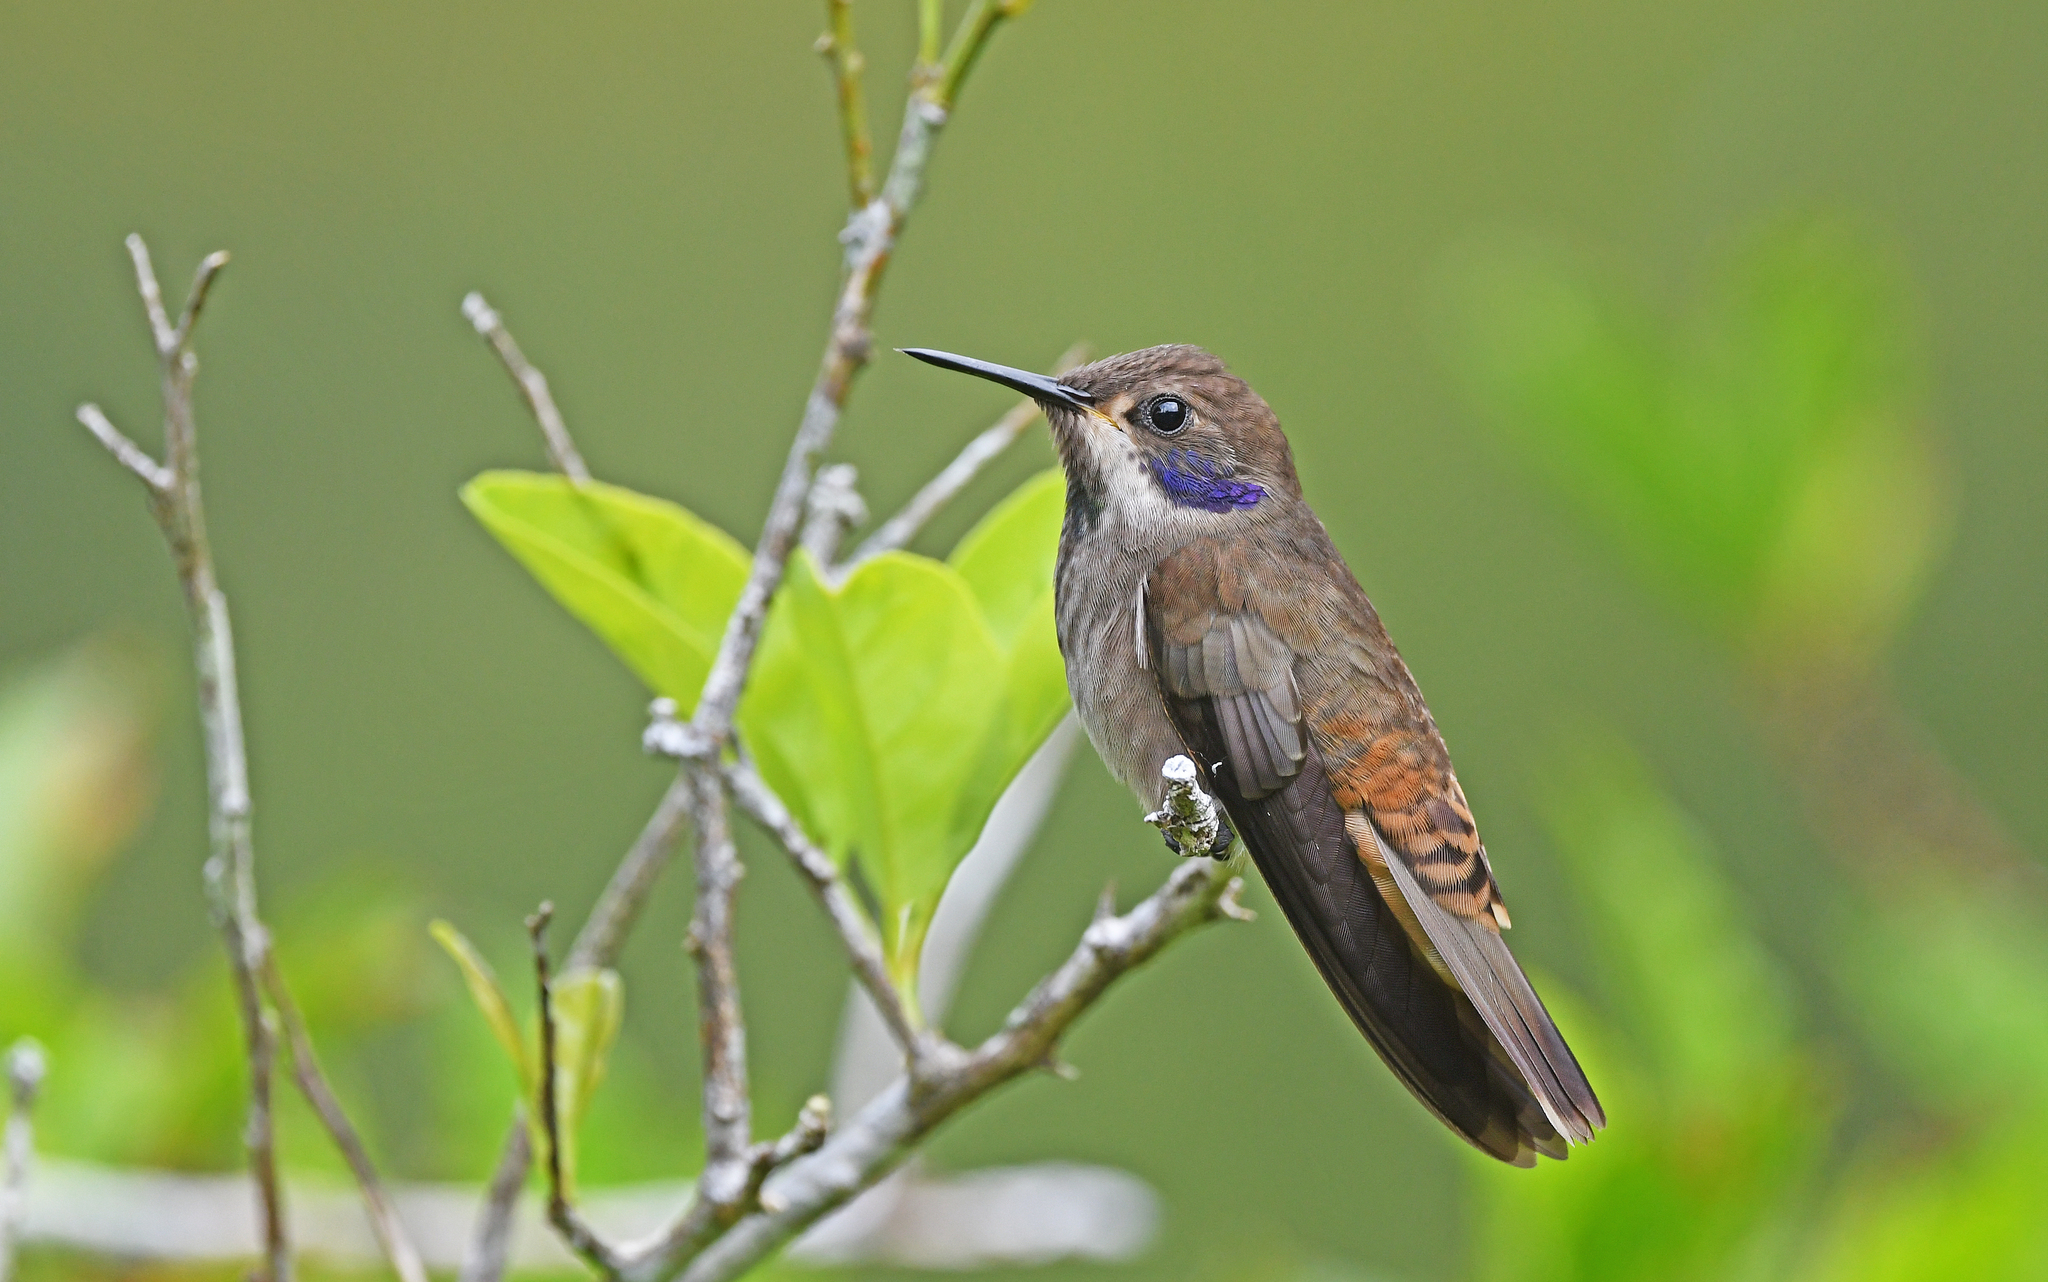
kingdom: Animalia
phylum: Chordata
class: Aves
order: Apodiformes
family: Trochilidae
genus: Colibri
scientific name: Colibri delphinae
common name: Brown violetear
